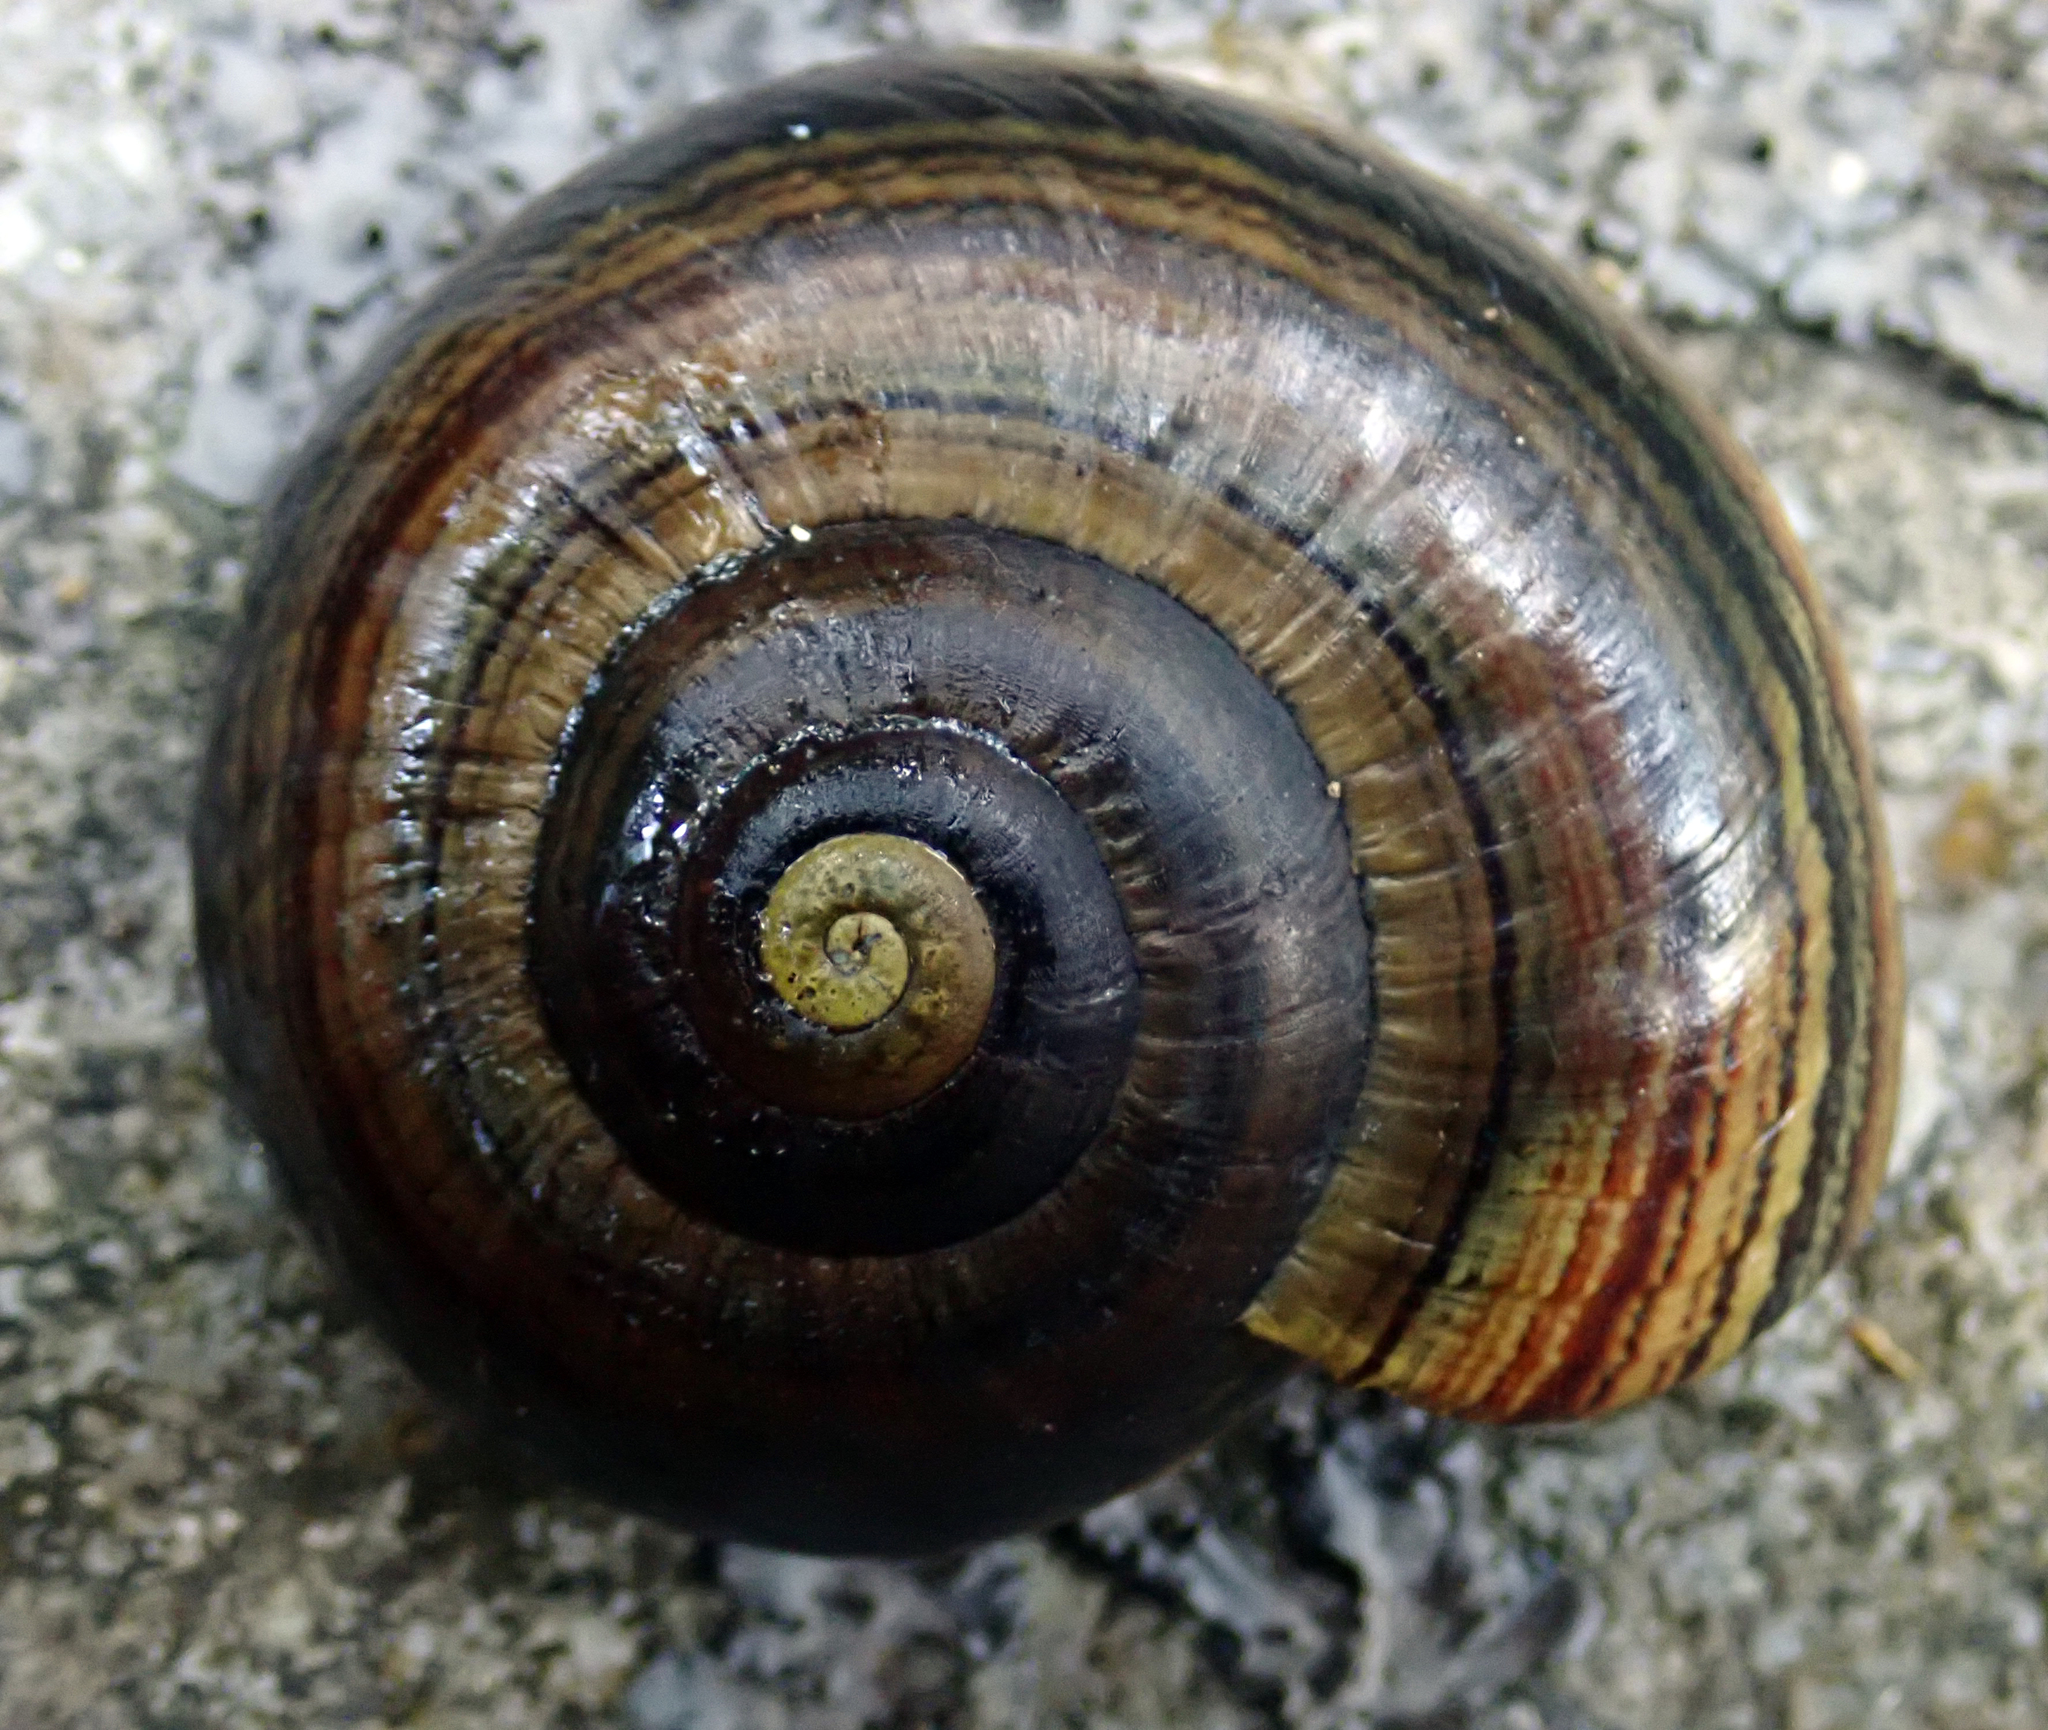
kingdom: Animalia
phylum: Mollusca
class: Gastropoda
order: Stylommatophora
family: Rhytididae
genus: Powelliphanta
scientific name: Powelliphanta hochstetteri
